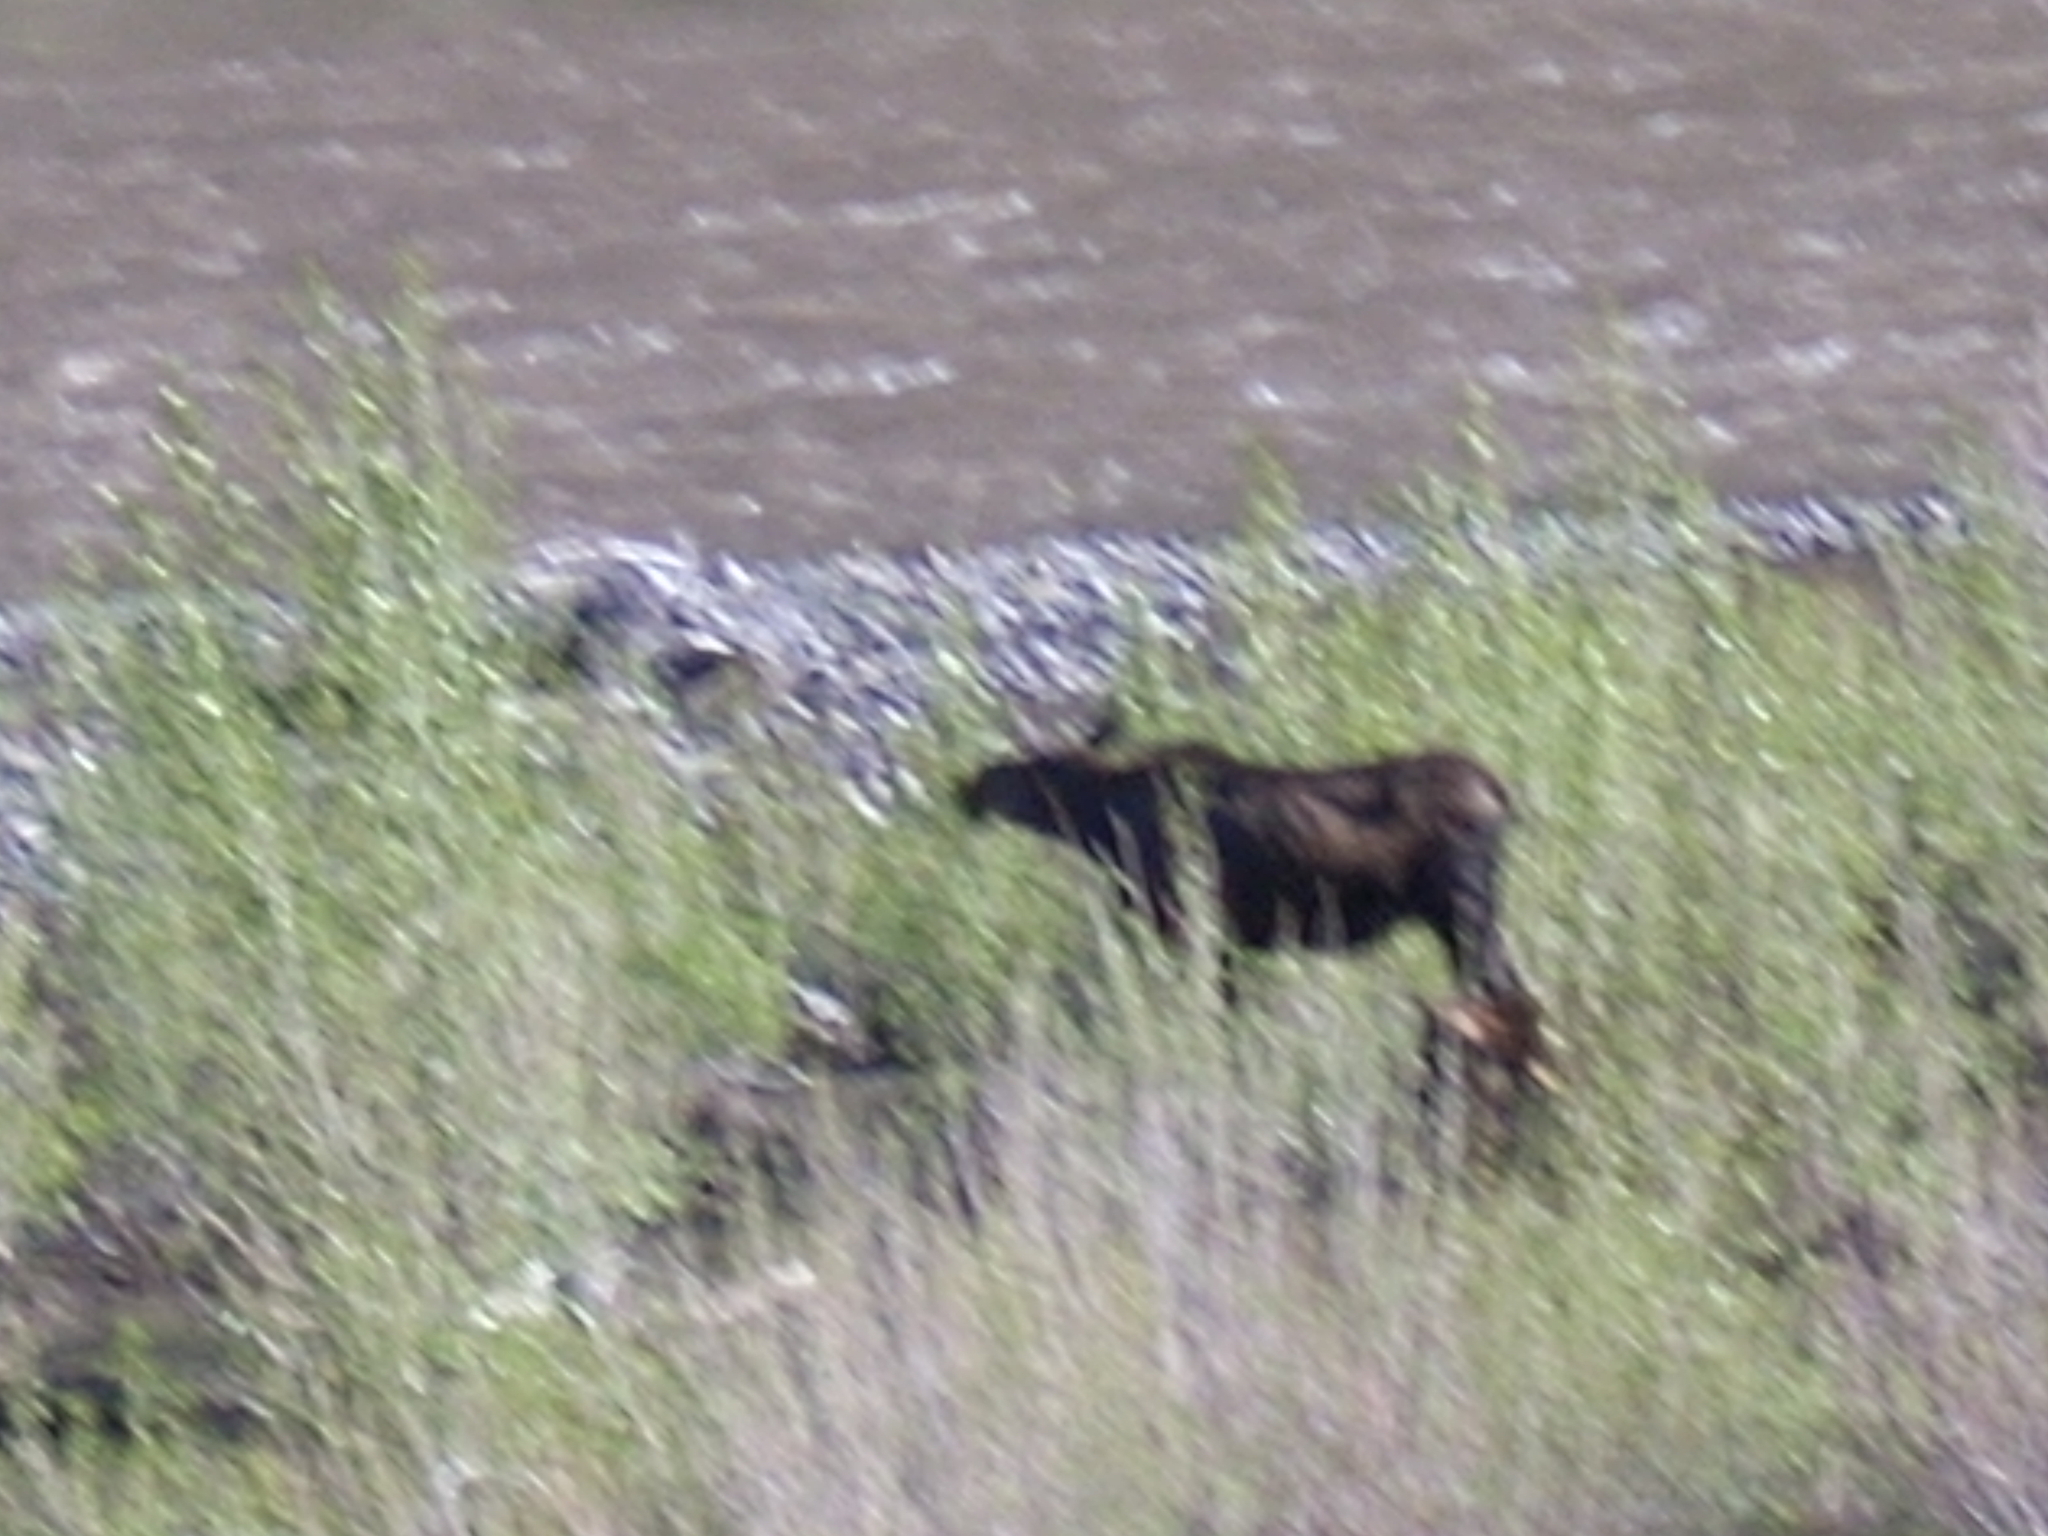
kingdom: Animalia
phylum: Chordata
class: Mammalia
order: Artiodactyla
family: Cervidae
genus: Alces
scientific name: Alces alces
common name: Moose
